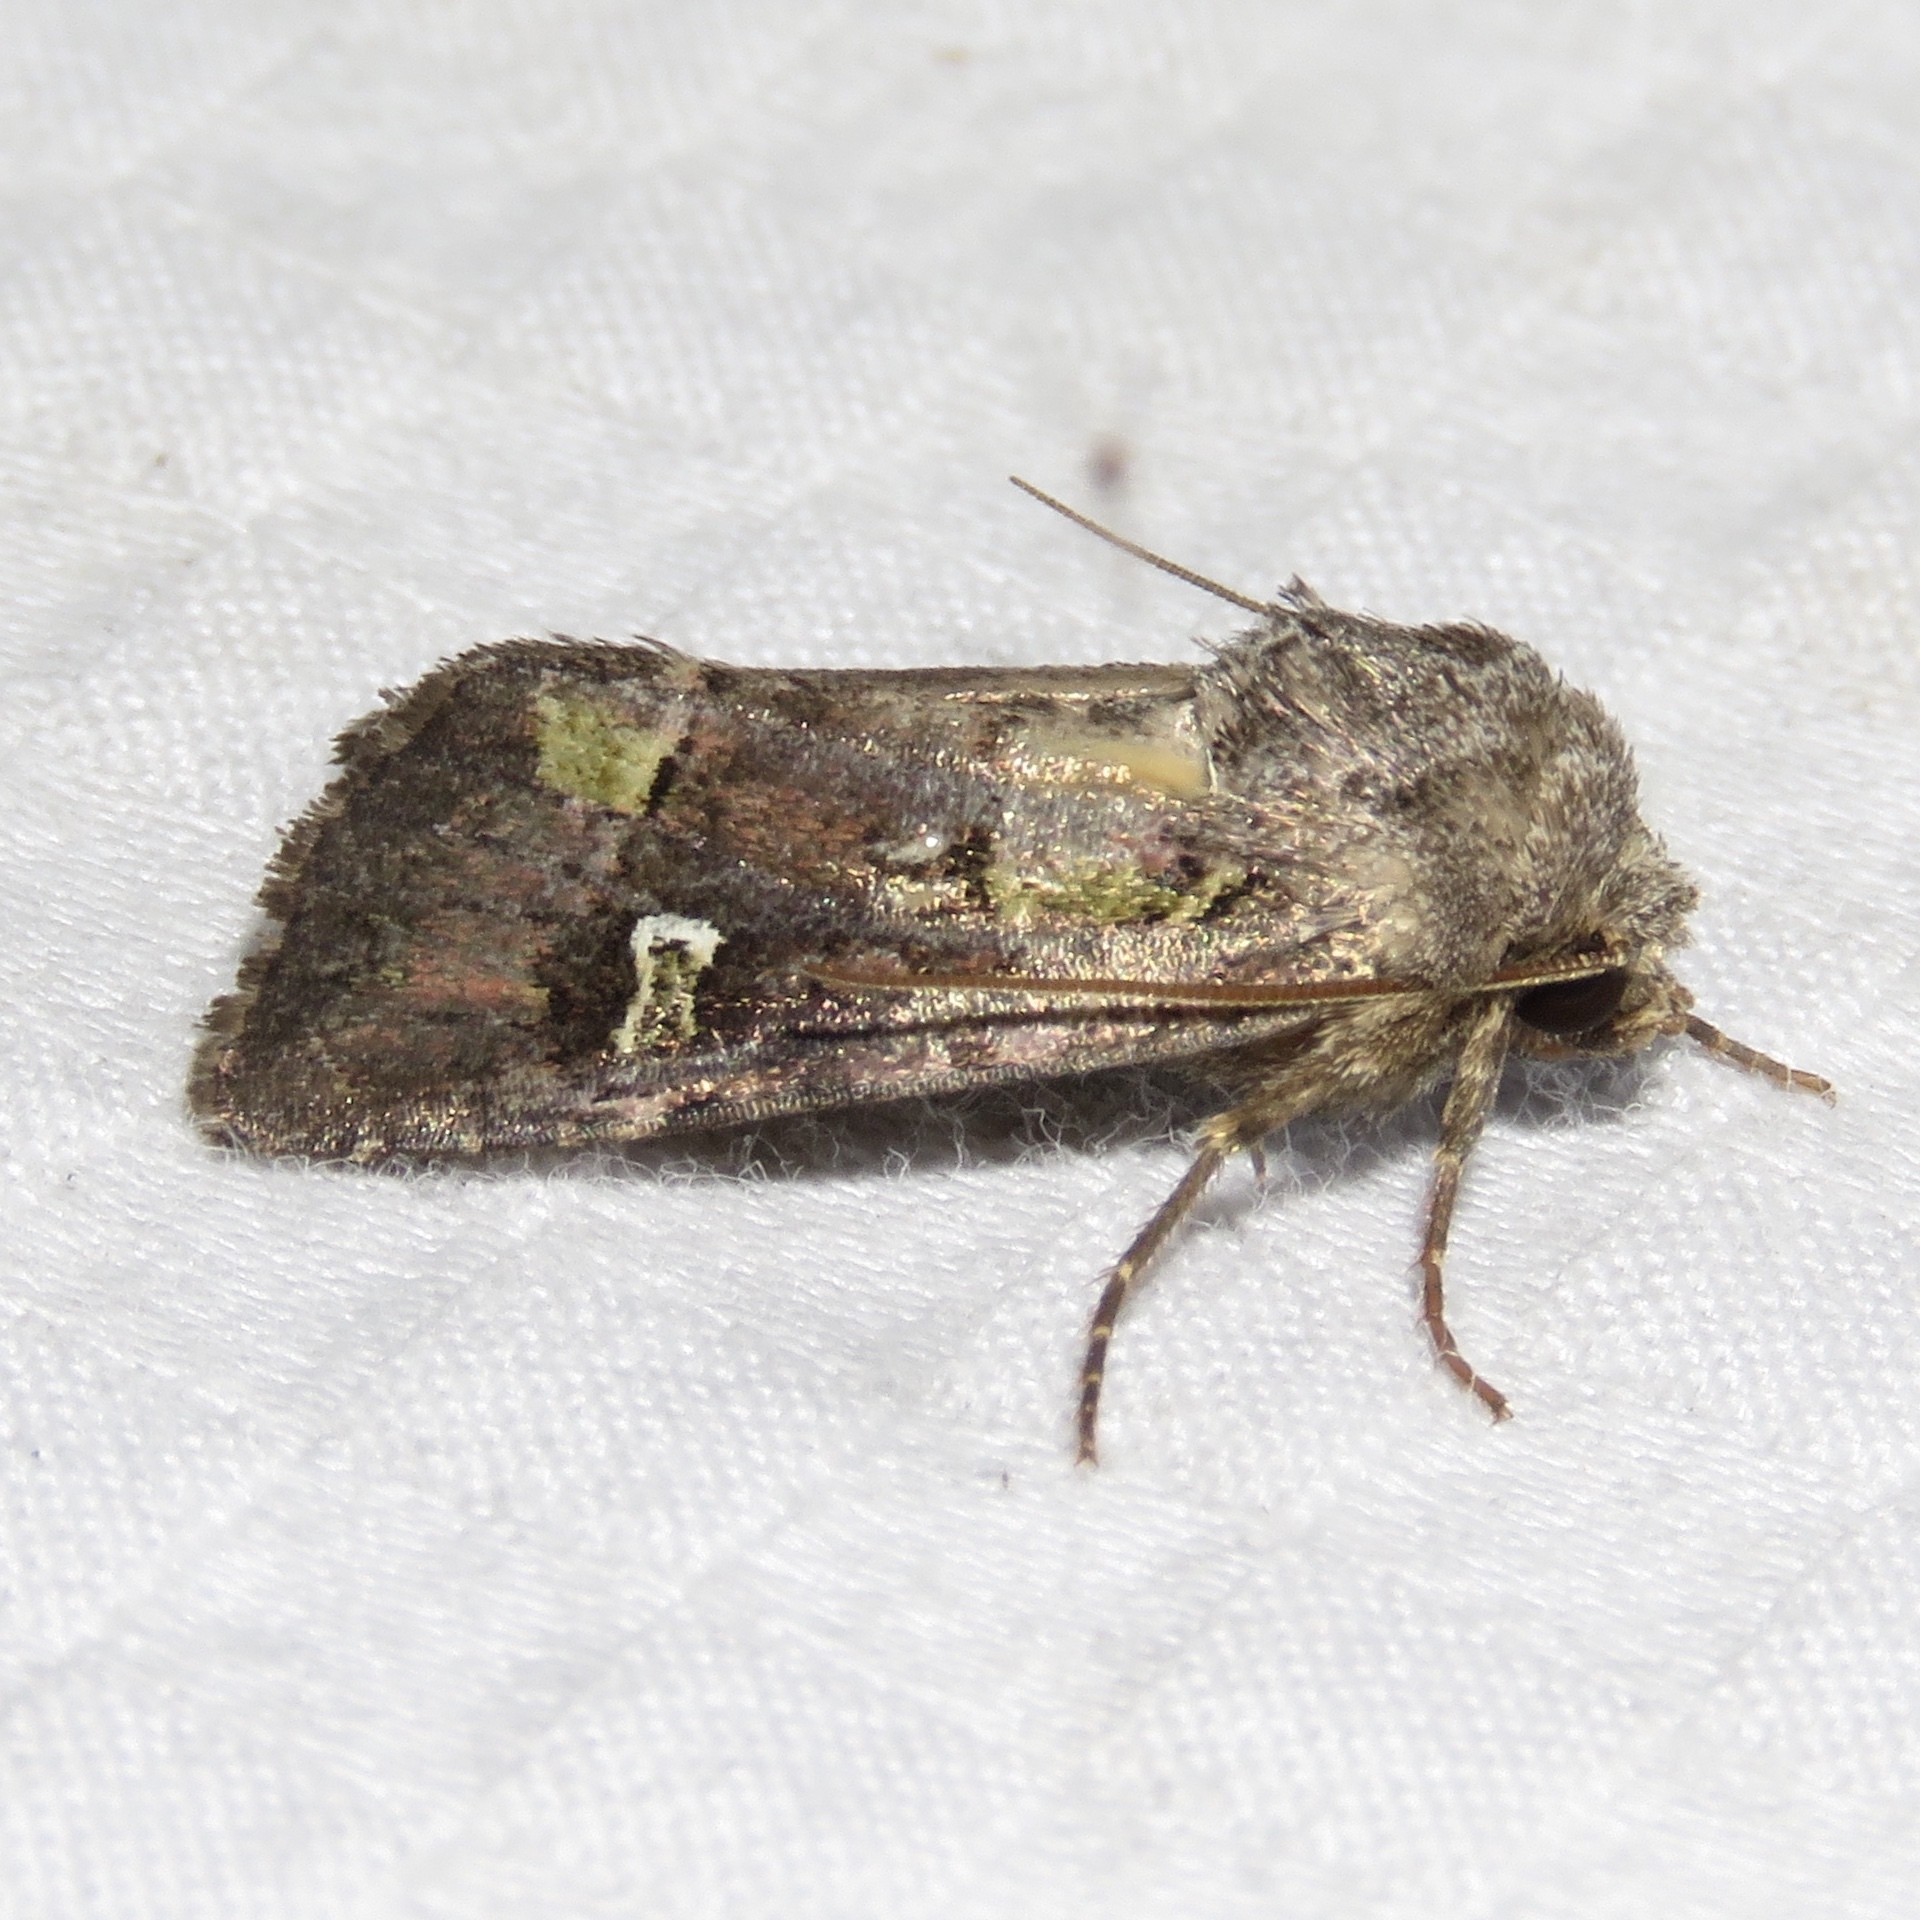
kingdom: Animalia
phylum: Arthropoda
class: Insecta
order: Lepidoptera
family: Noctuidae
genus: Lacinipolia
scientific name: Lacinipolia renigera
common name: Kidney-spotted minor
